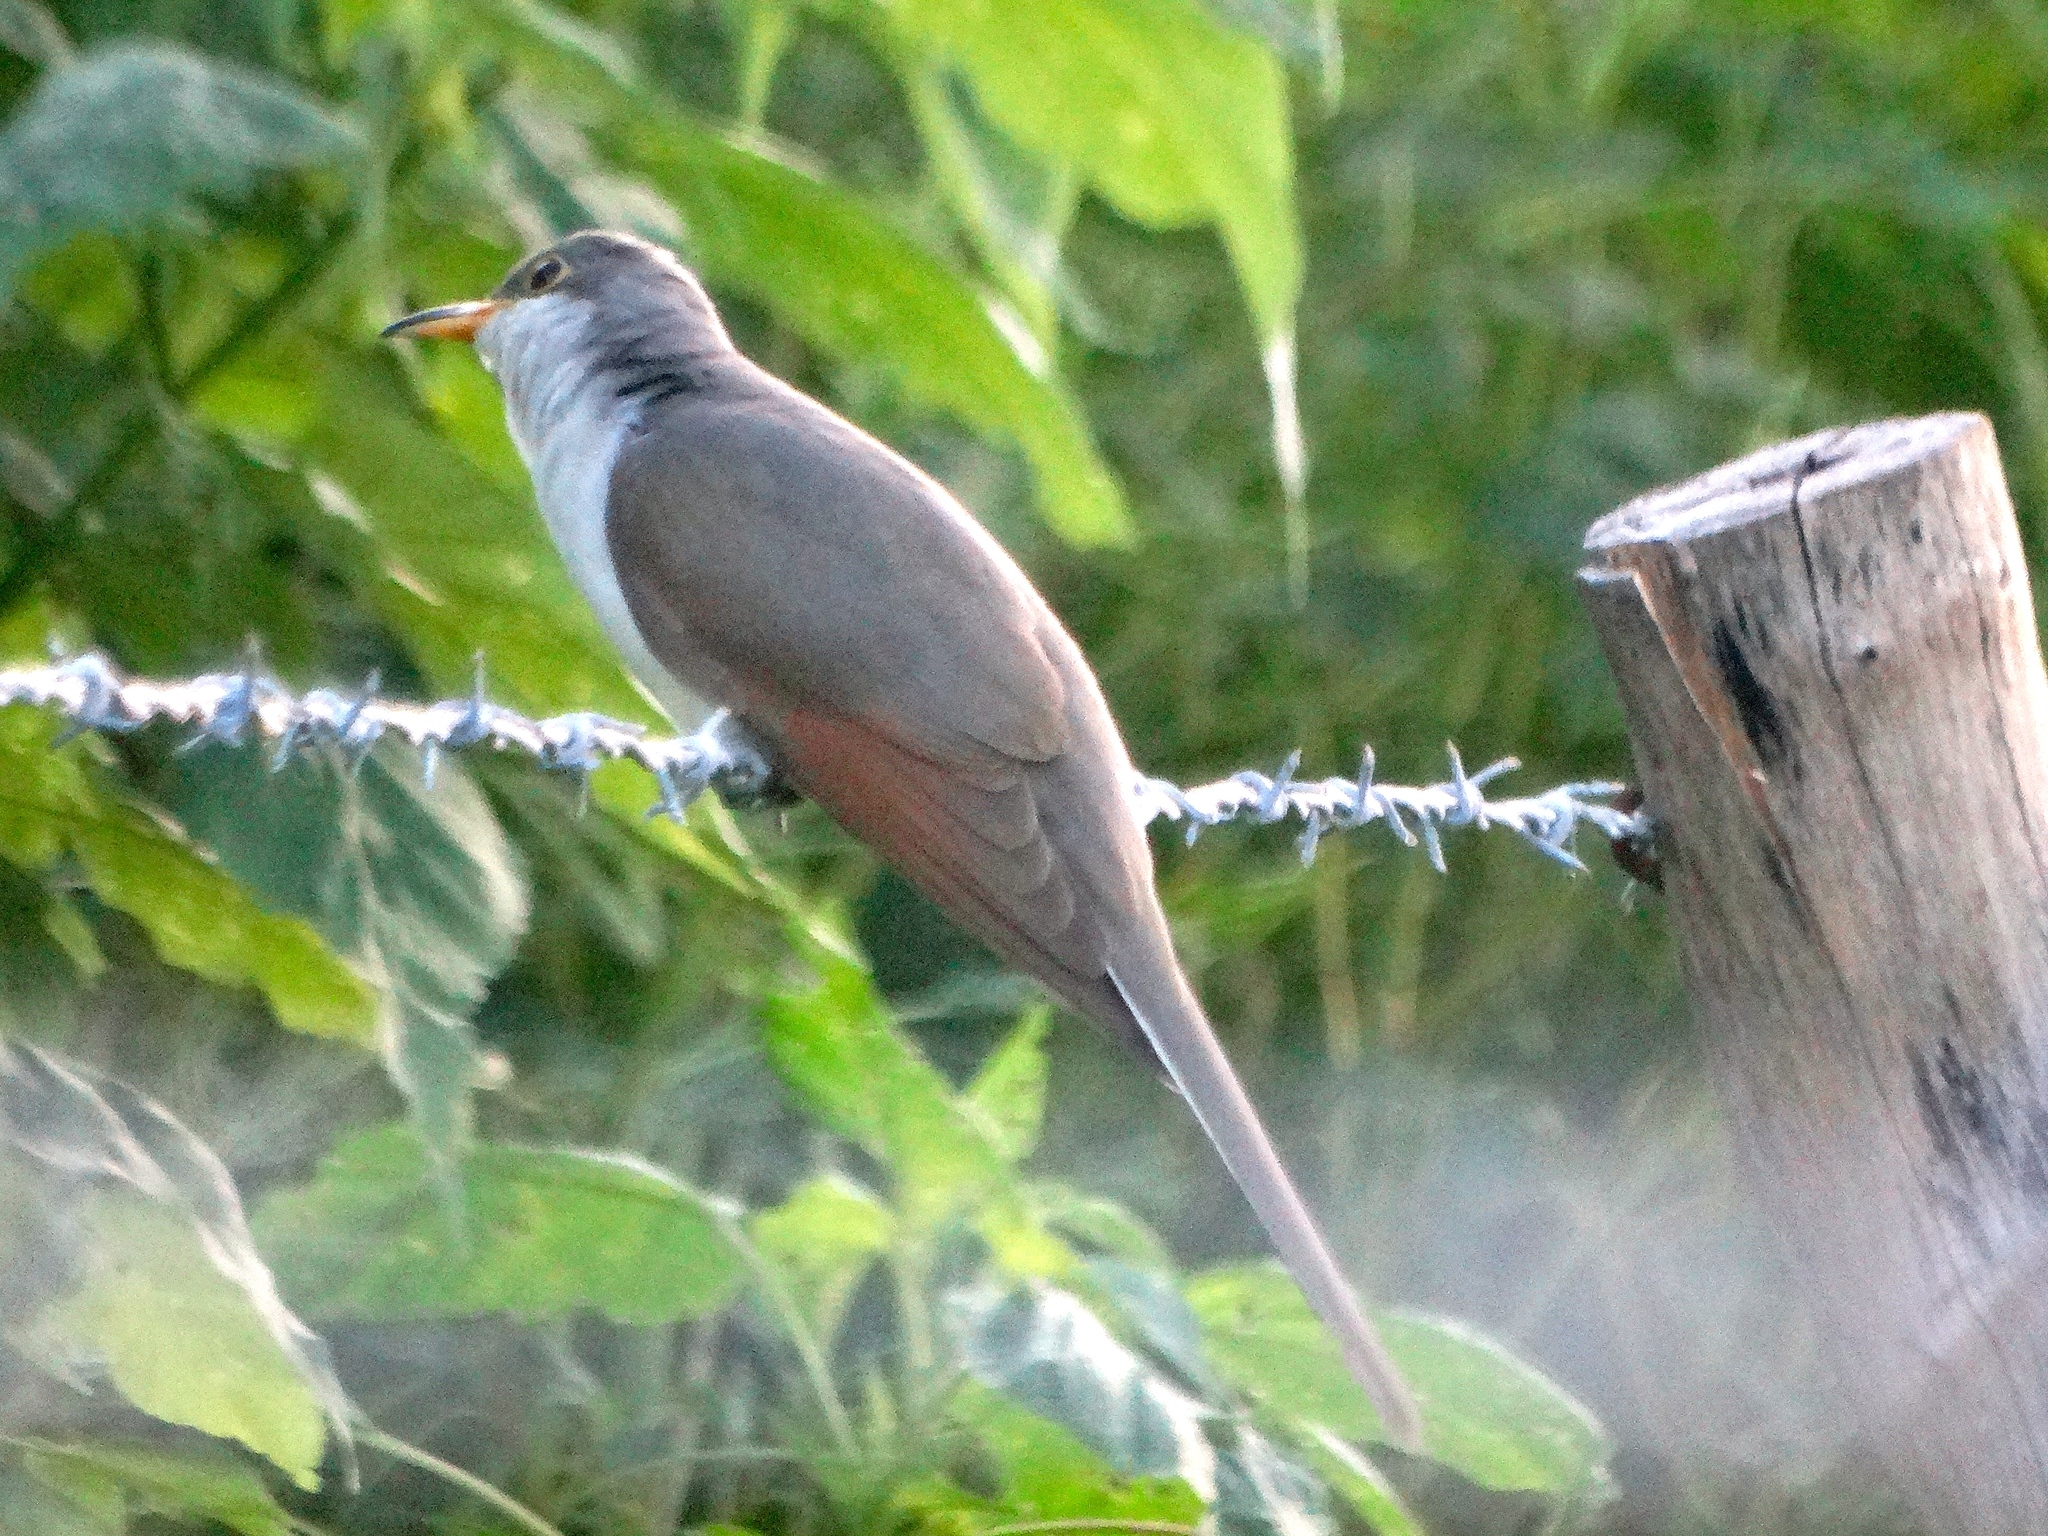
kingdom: Animalia
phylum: Chordata
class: Aves
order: Cuculiformes
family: Cuculidae
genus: Coccyzus
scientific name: Coccyzus americanus
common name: Yellow-billed cuckoo
